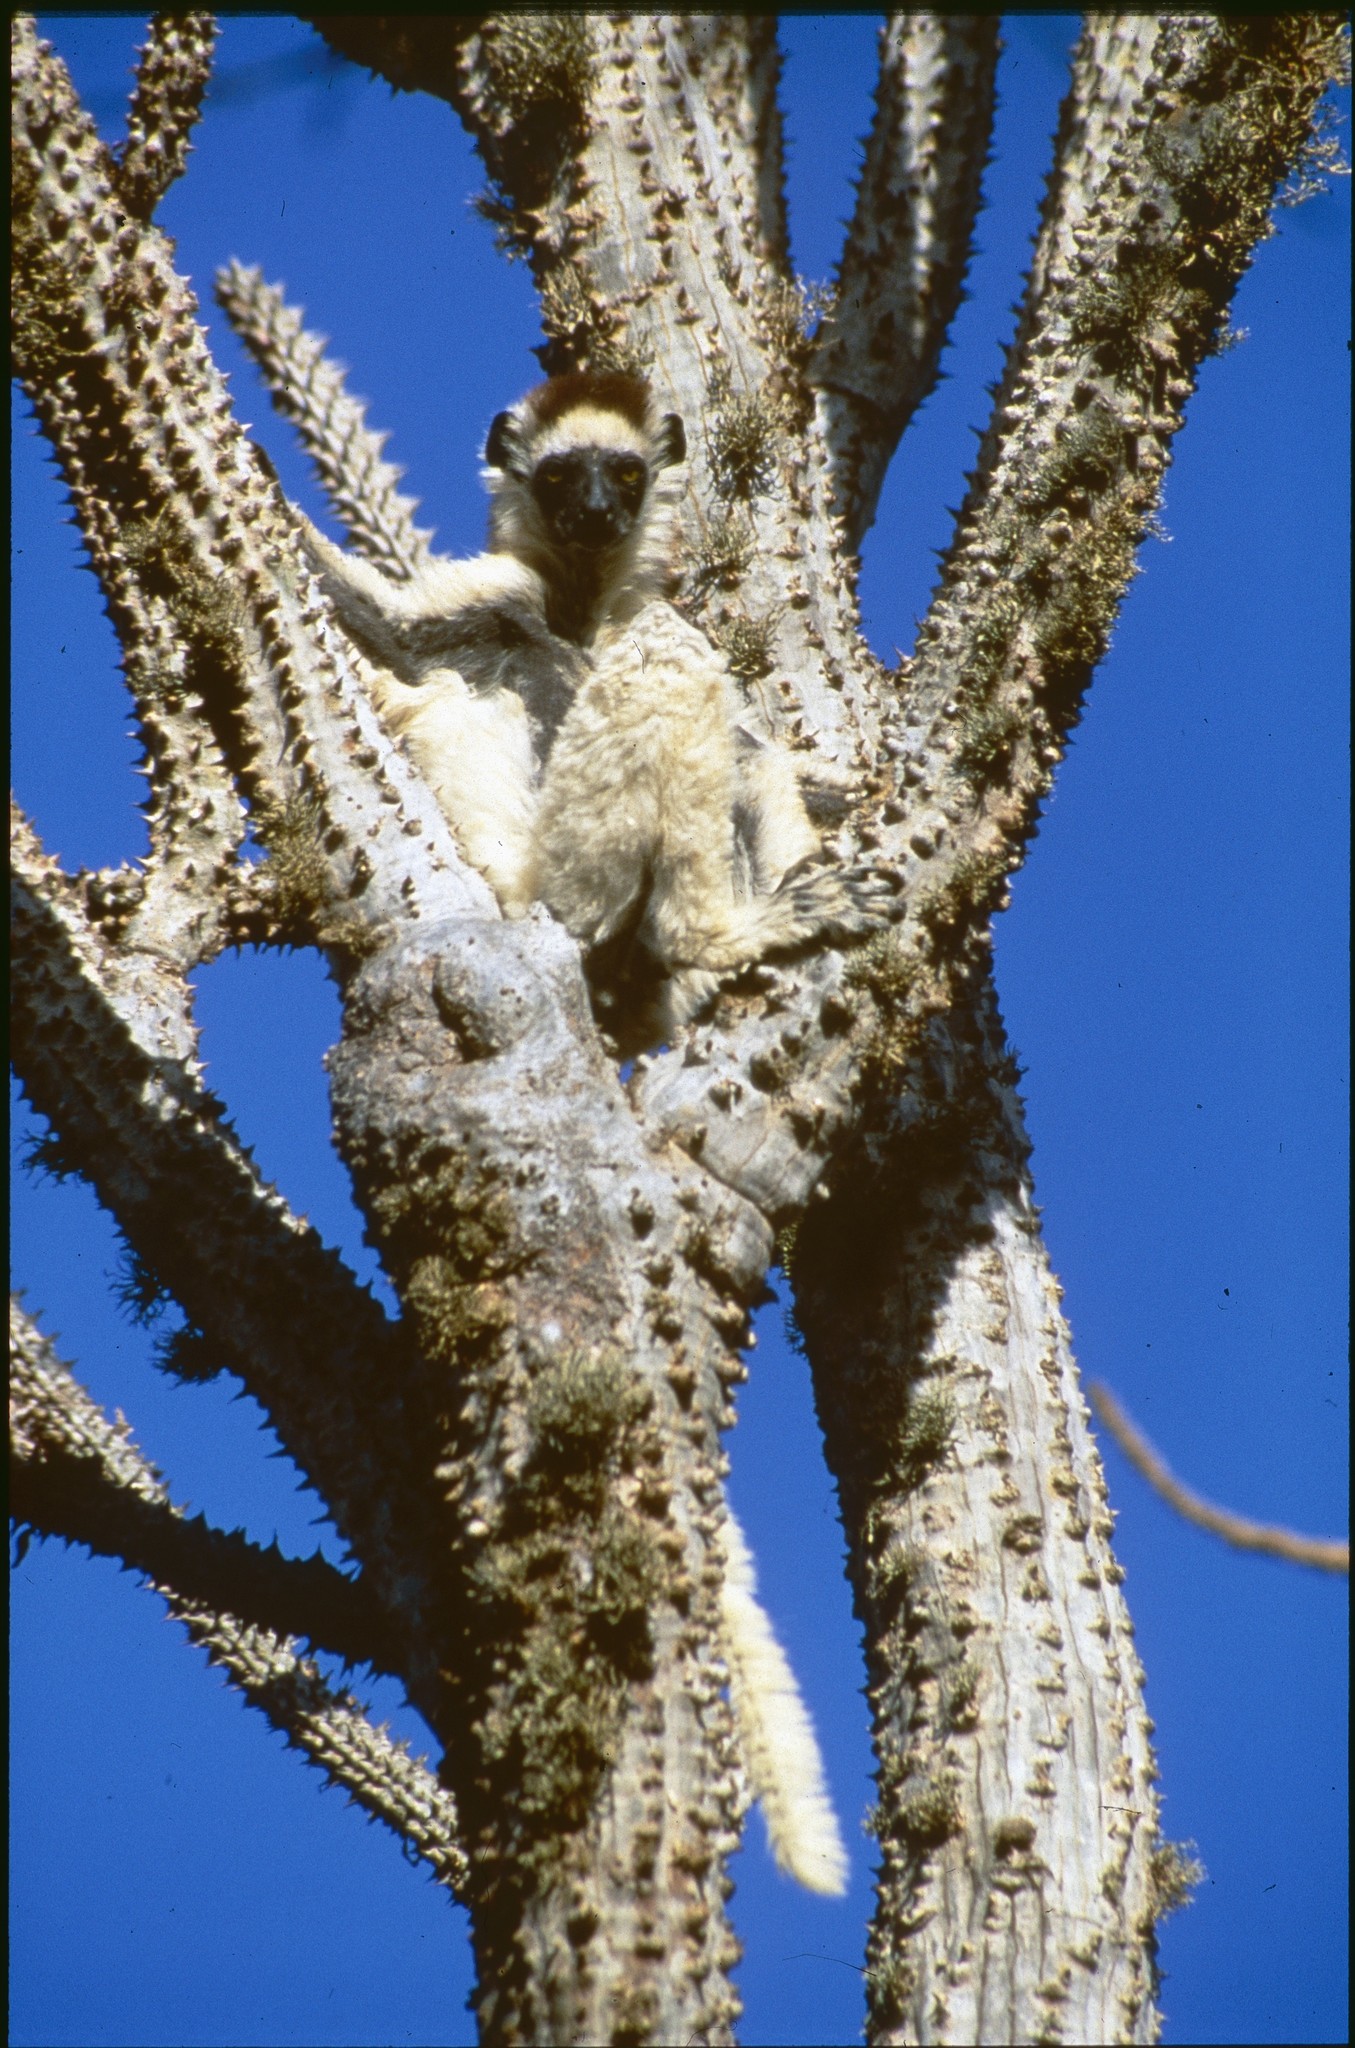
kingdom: Animalia
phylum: Chordata
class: Mammalia
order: Primates
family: Indriidae
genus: Propithecus
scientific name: Propithecus verreauxi
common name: Verreaux's sifaka
